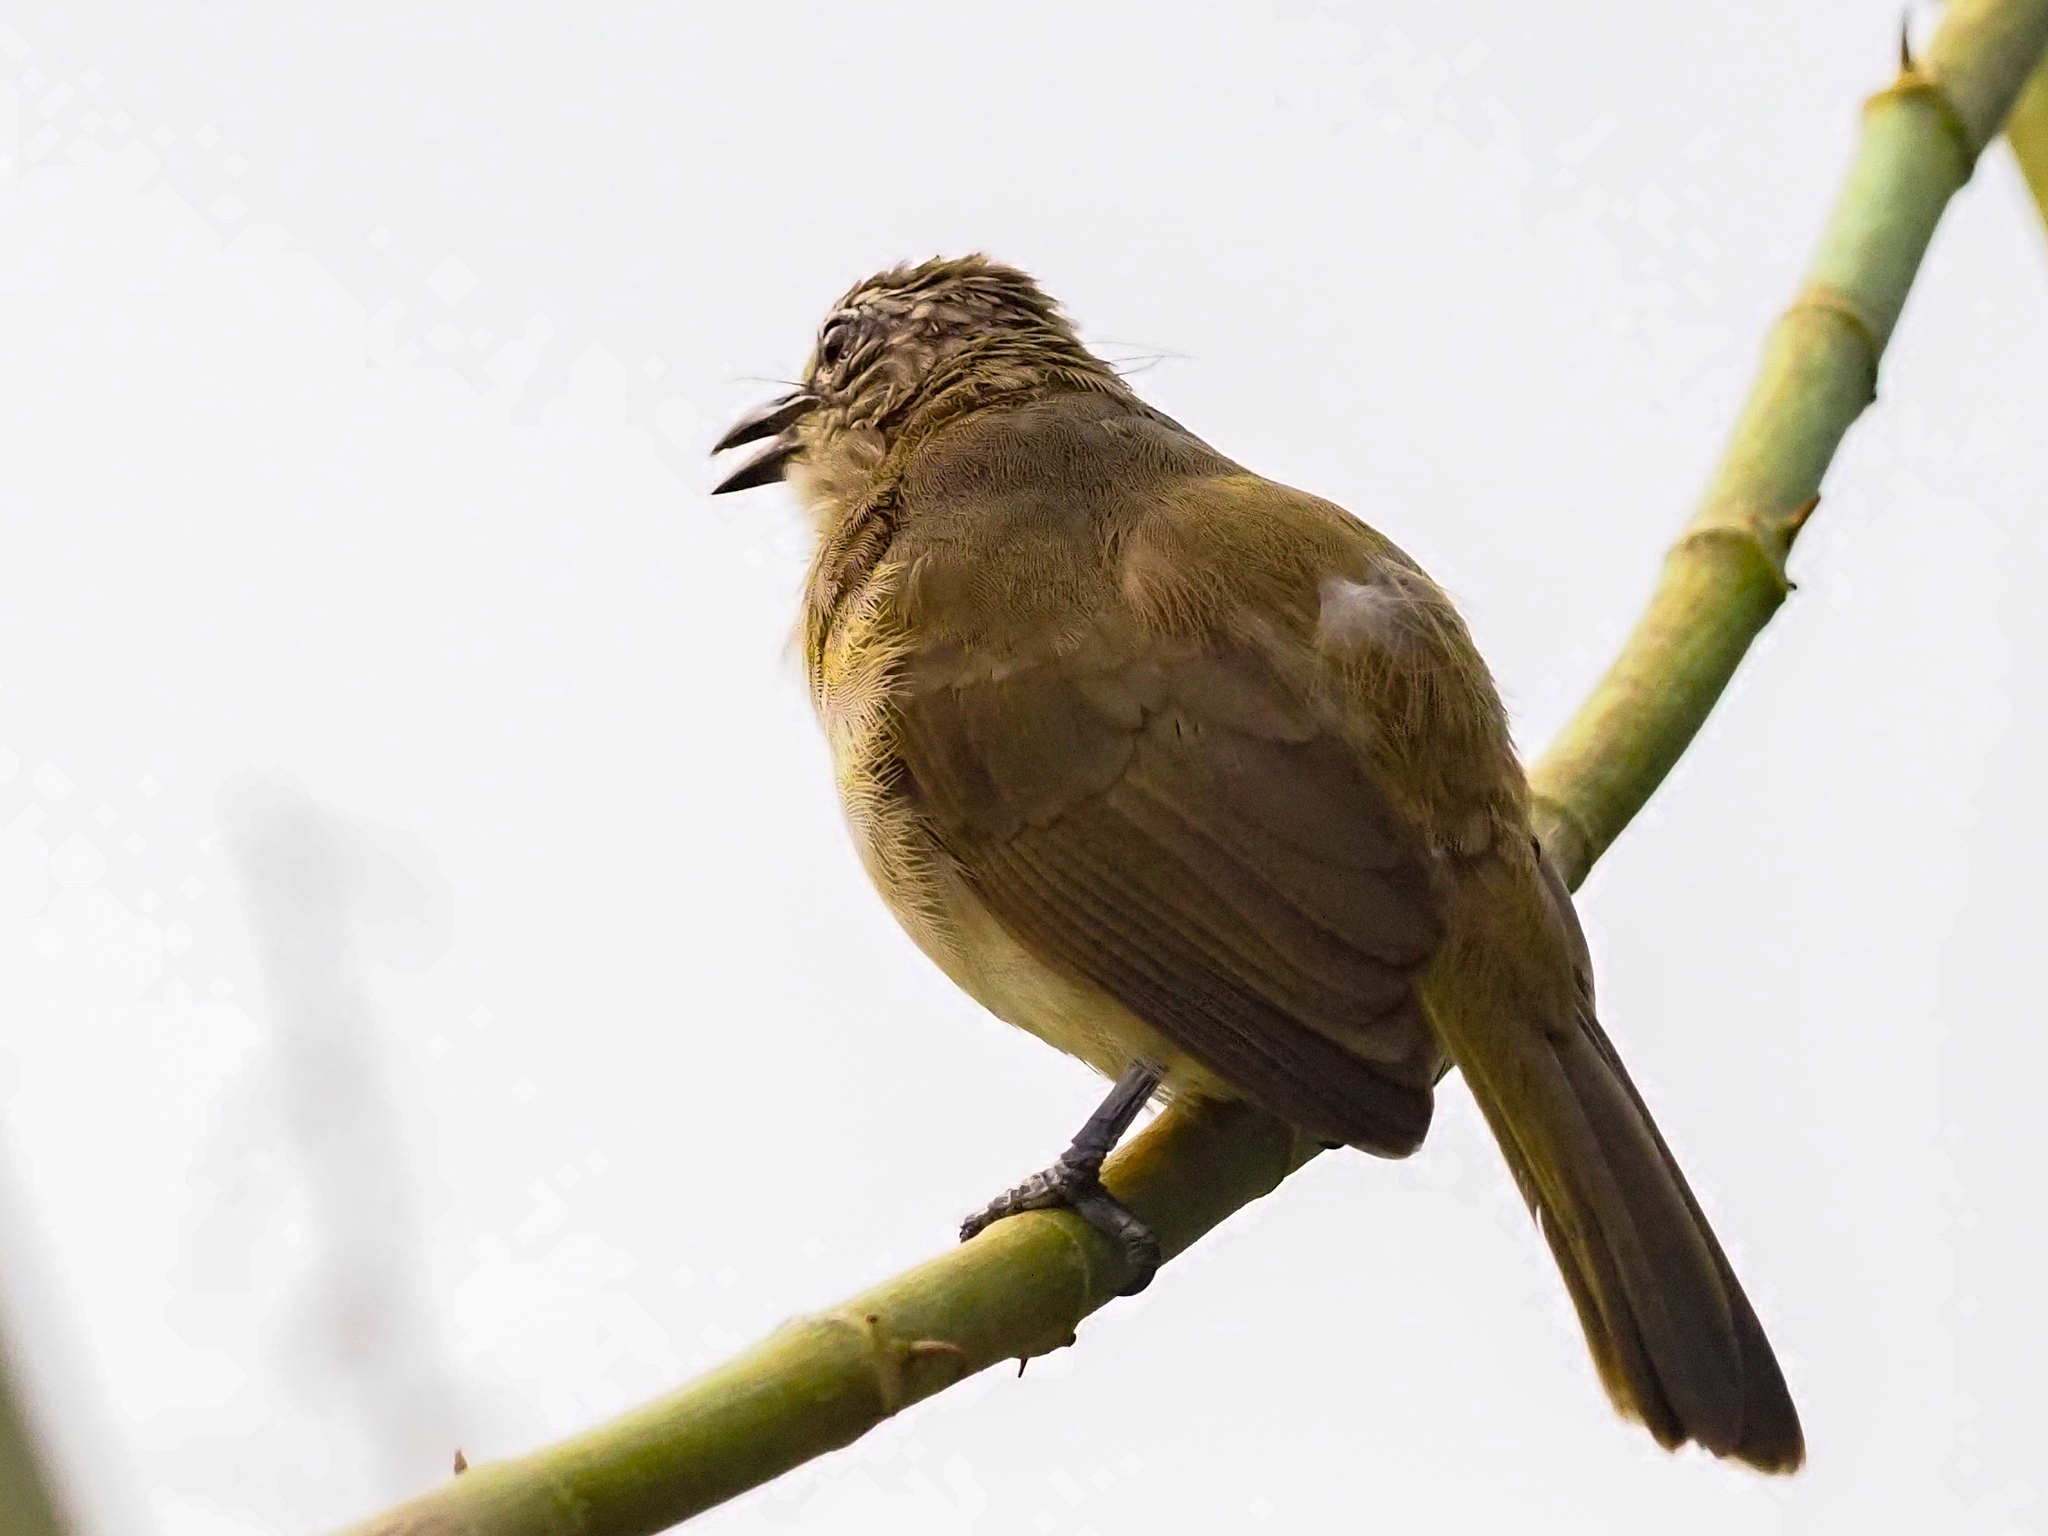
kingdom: Animalia
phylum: Chordata
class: Aves
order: Passeriformes
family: Pycnonotidae
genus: Pycnonotus
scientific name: Pycnonotus luteolus
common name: White-browed bulbul
